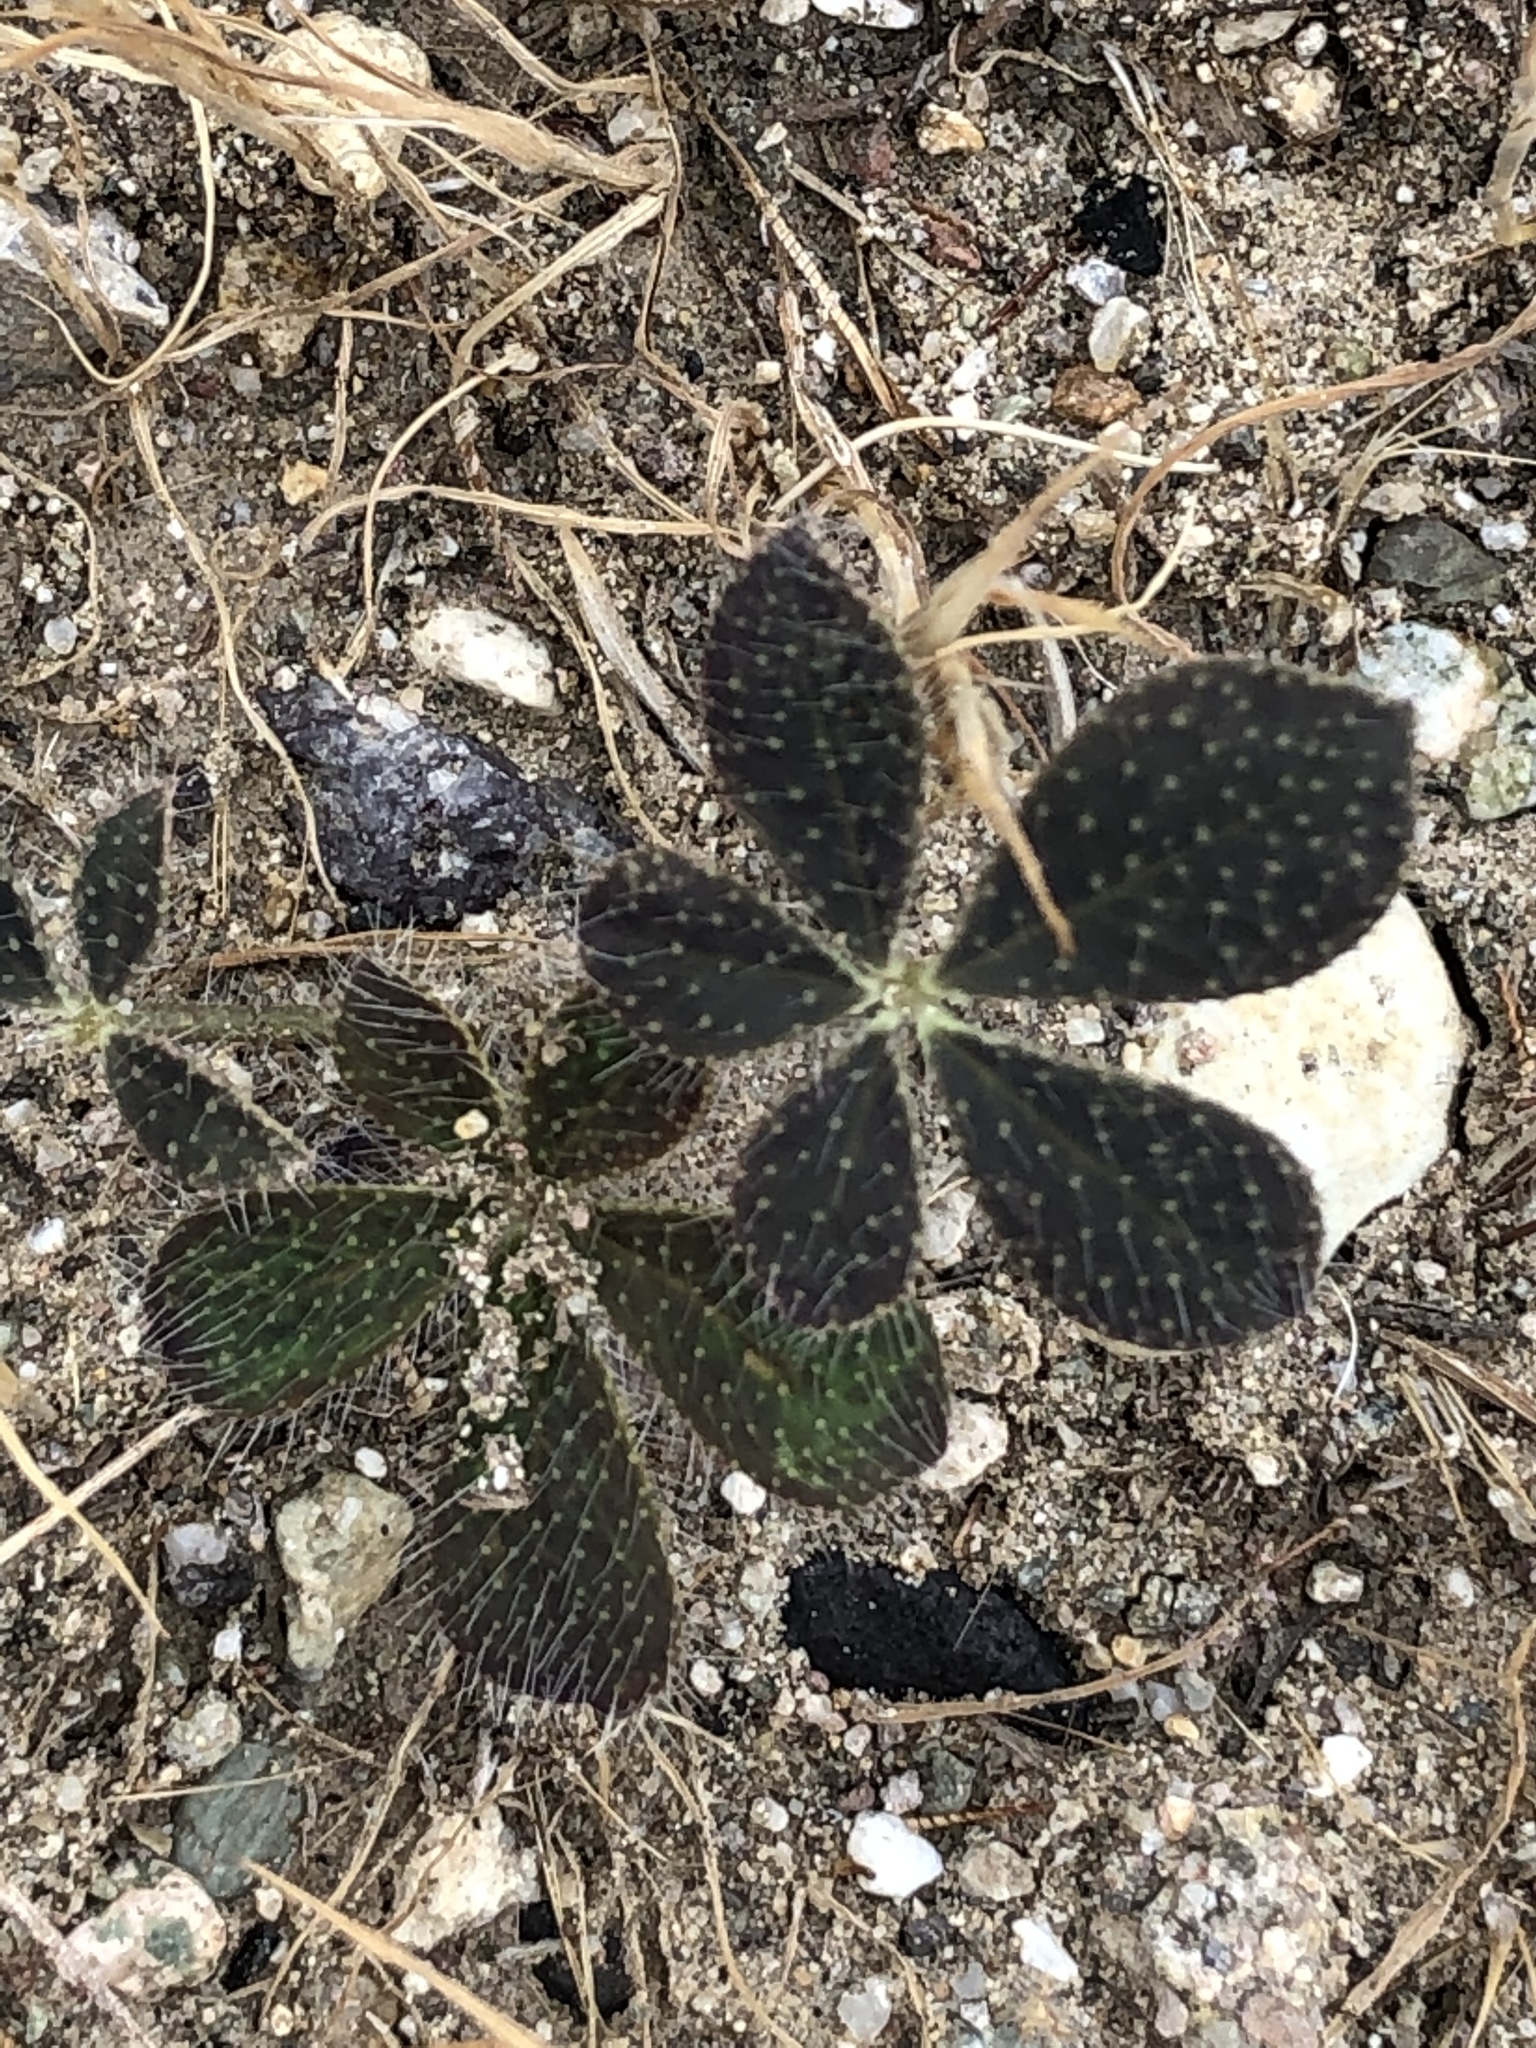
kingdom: Plantae
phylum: Tracheophyta
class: Magnoliopsida
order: Fabales
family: Fabaceae
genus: Lupinus
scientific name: Lupinus hirsutissimus
